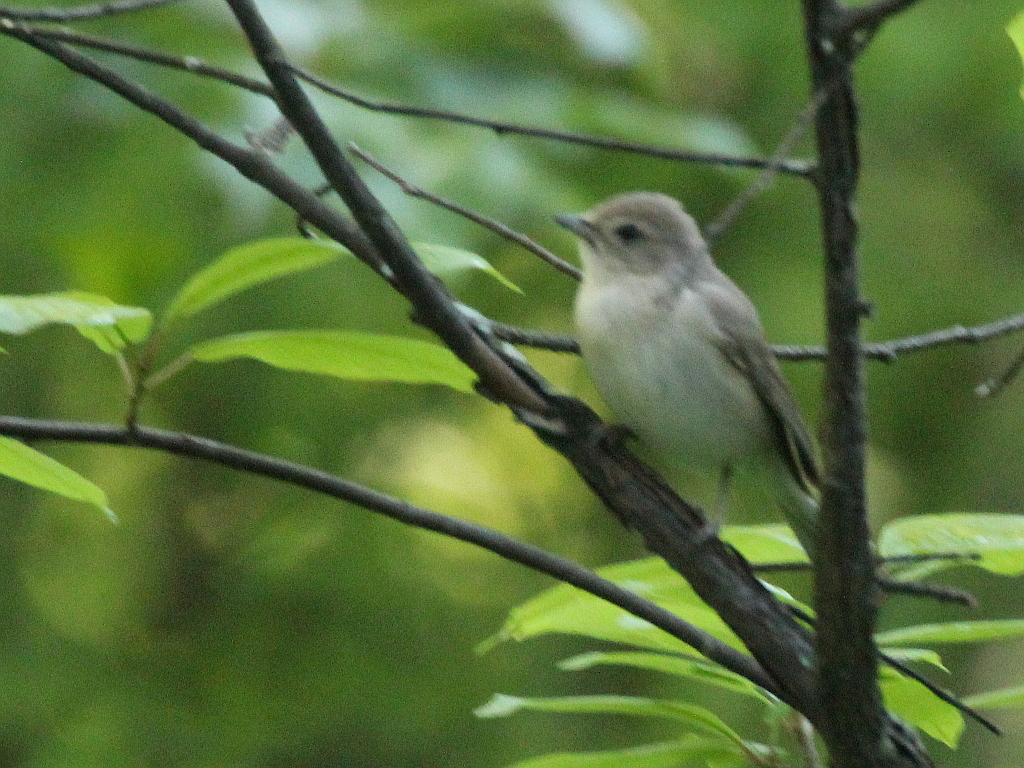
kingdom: Animalia
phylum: Chordata
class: Aves
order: Passeriformes
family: Sylviidae
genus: Sylvia
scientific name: Sylvia borin
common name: Garden warbler
